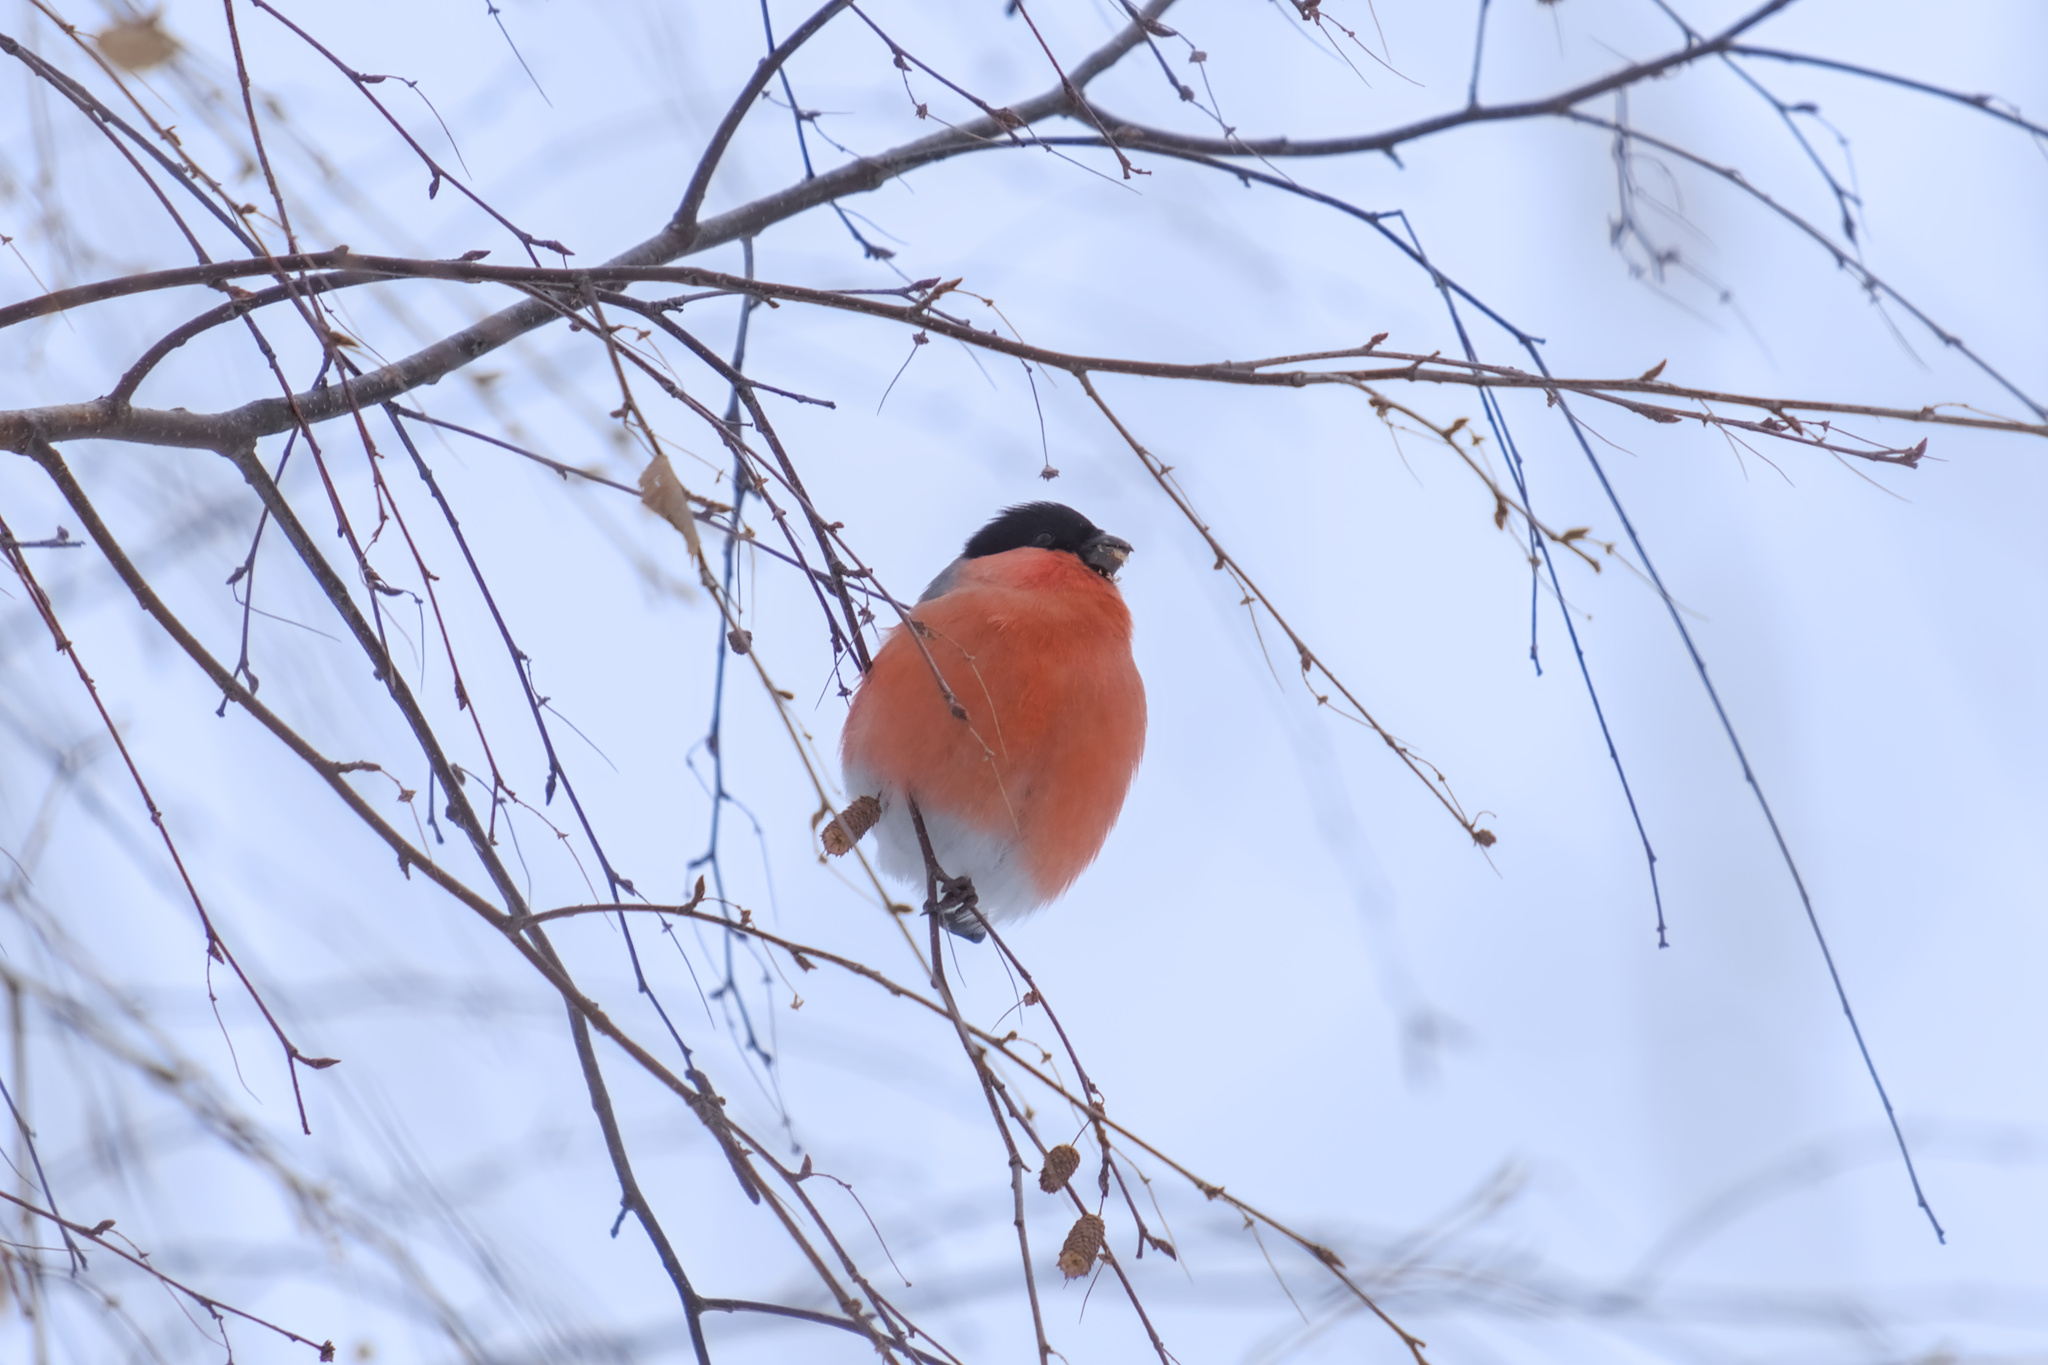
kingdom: Animalia
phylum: Chordata
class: Aves
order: Passeriformes
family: Fringillidae
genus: Pyrrhula
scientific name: Pyrrhula pyrrhula
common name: Eurasian bullfinch
